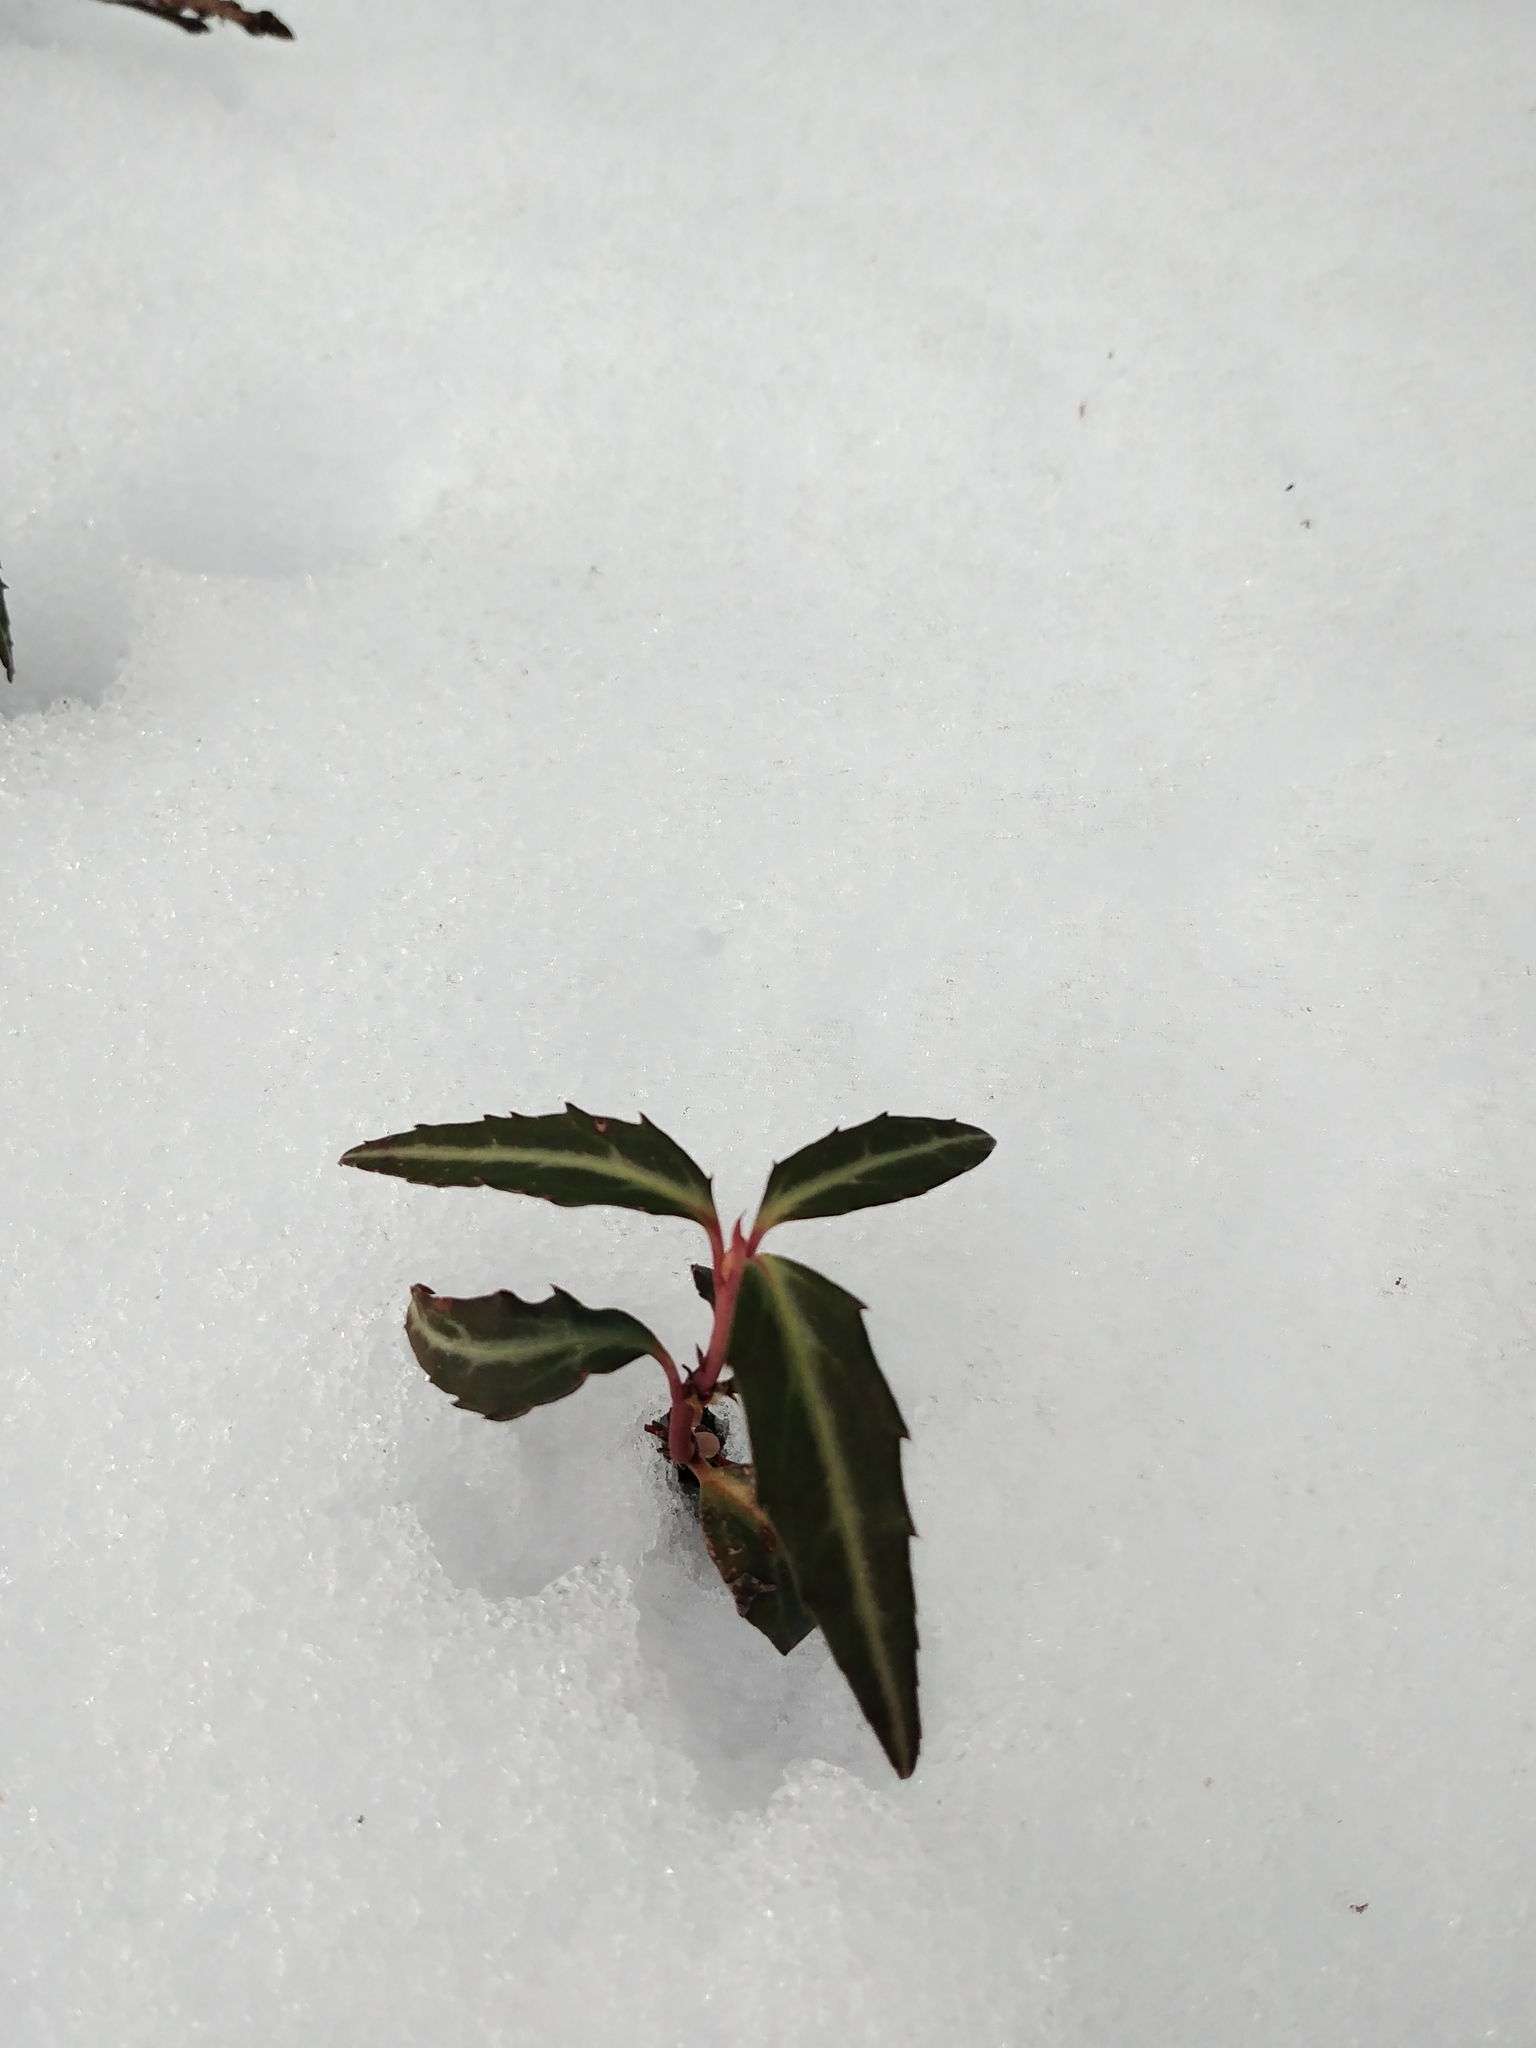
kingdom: Plantae
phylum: Tracheophyta
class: Magnoliopsida
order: Ericales
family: Ericaceae
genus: Chimaphila
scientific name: Chimaphila maculata
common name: Spotted pipsissewa
